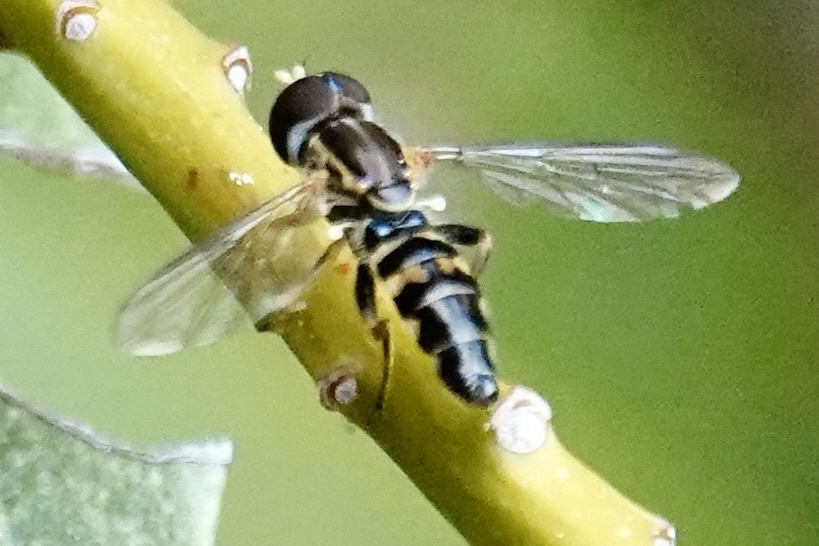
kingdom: Animalia
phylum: Arthropoda
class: Insecta
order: Diptera
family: Syrphidae
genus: Toxomerus
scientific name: Toxomerus geminatus
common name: Eastern calligrapher
